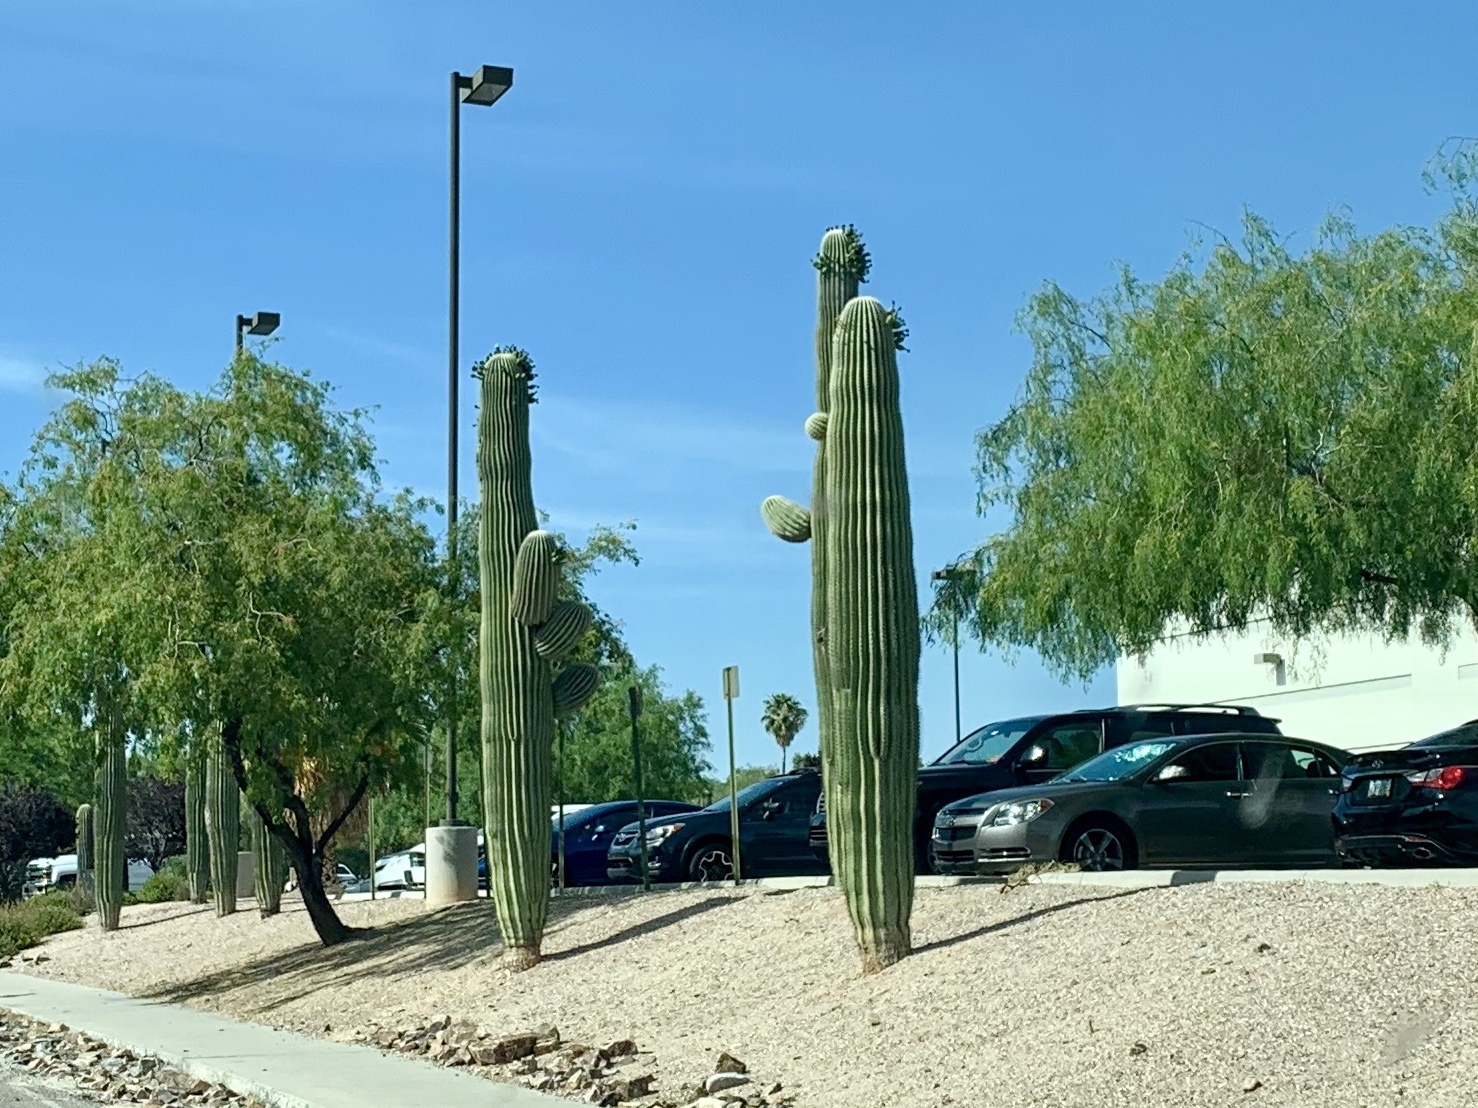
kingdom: Plantae
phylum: Tracheophyta
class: Magnoliopsida
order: Caryophyllales
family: Cactaceae
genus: Carnegiea
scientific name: Carnegiea gigantea
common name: Saguaro
